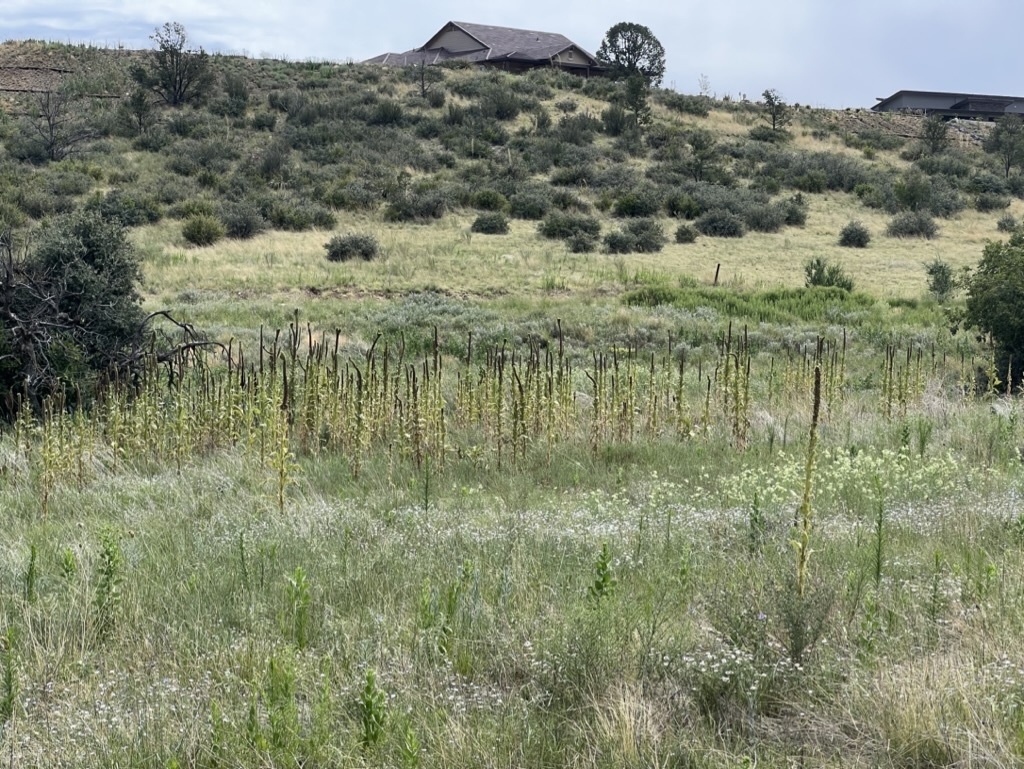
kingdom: Plantae
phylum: Tracheophyta
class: Magnoliopsida
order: Lamiales
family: Scrophulariaceae
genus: Verbascum
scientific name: Verbascum thapsus
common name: Common mullein
